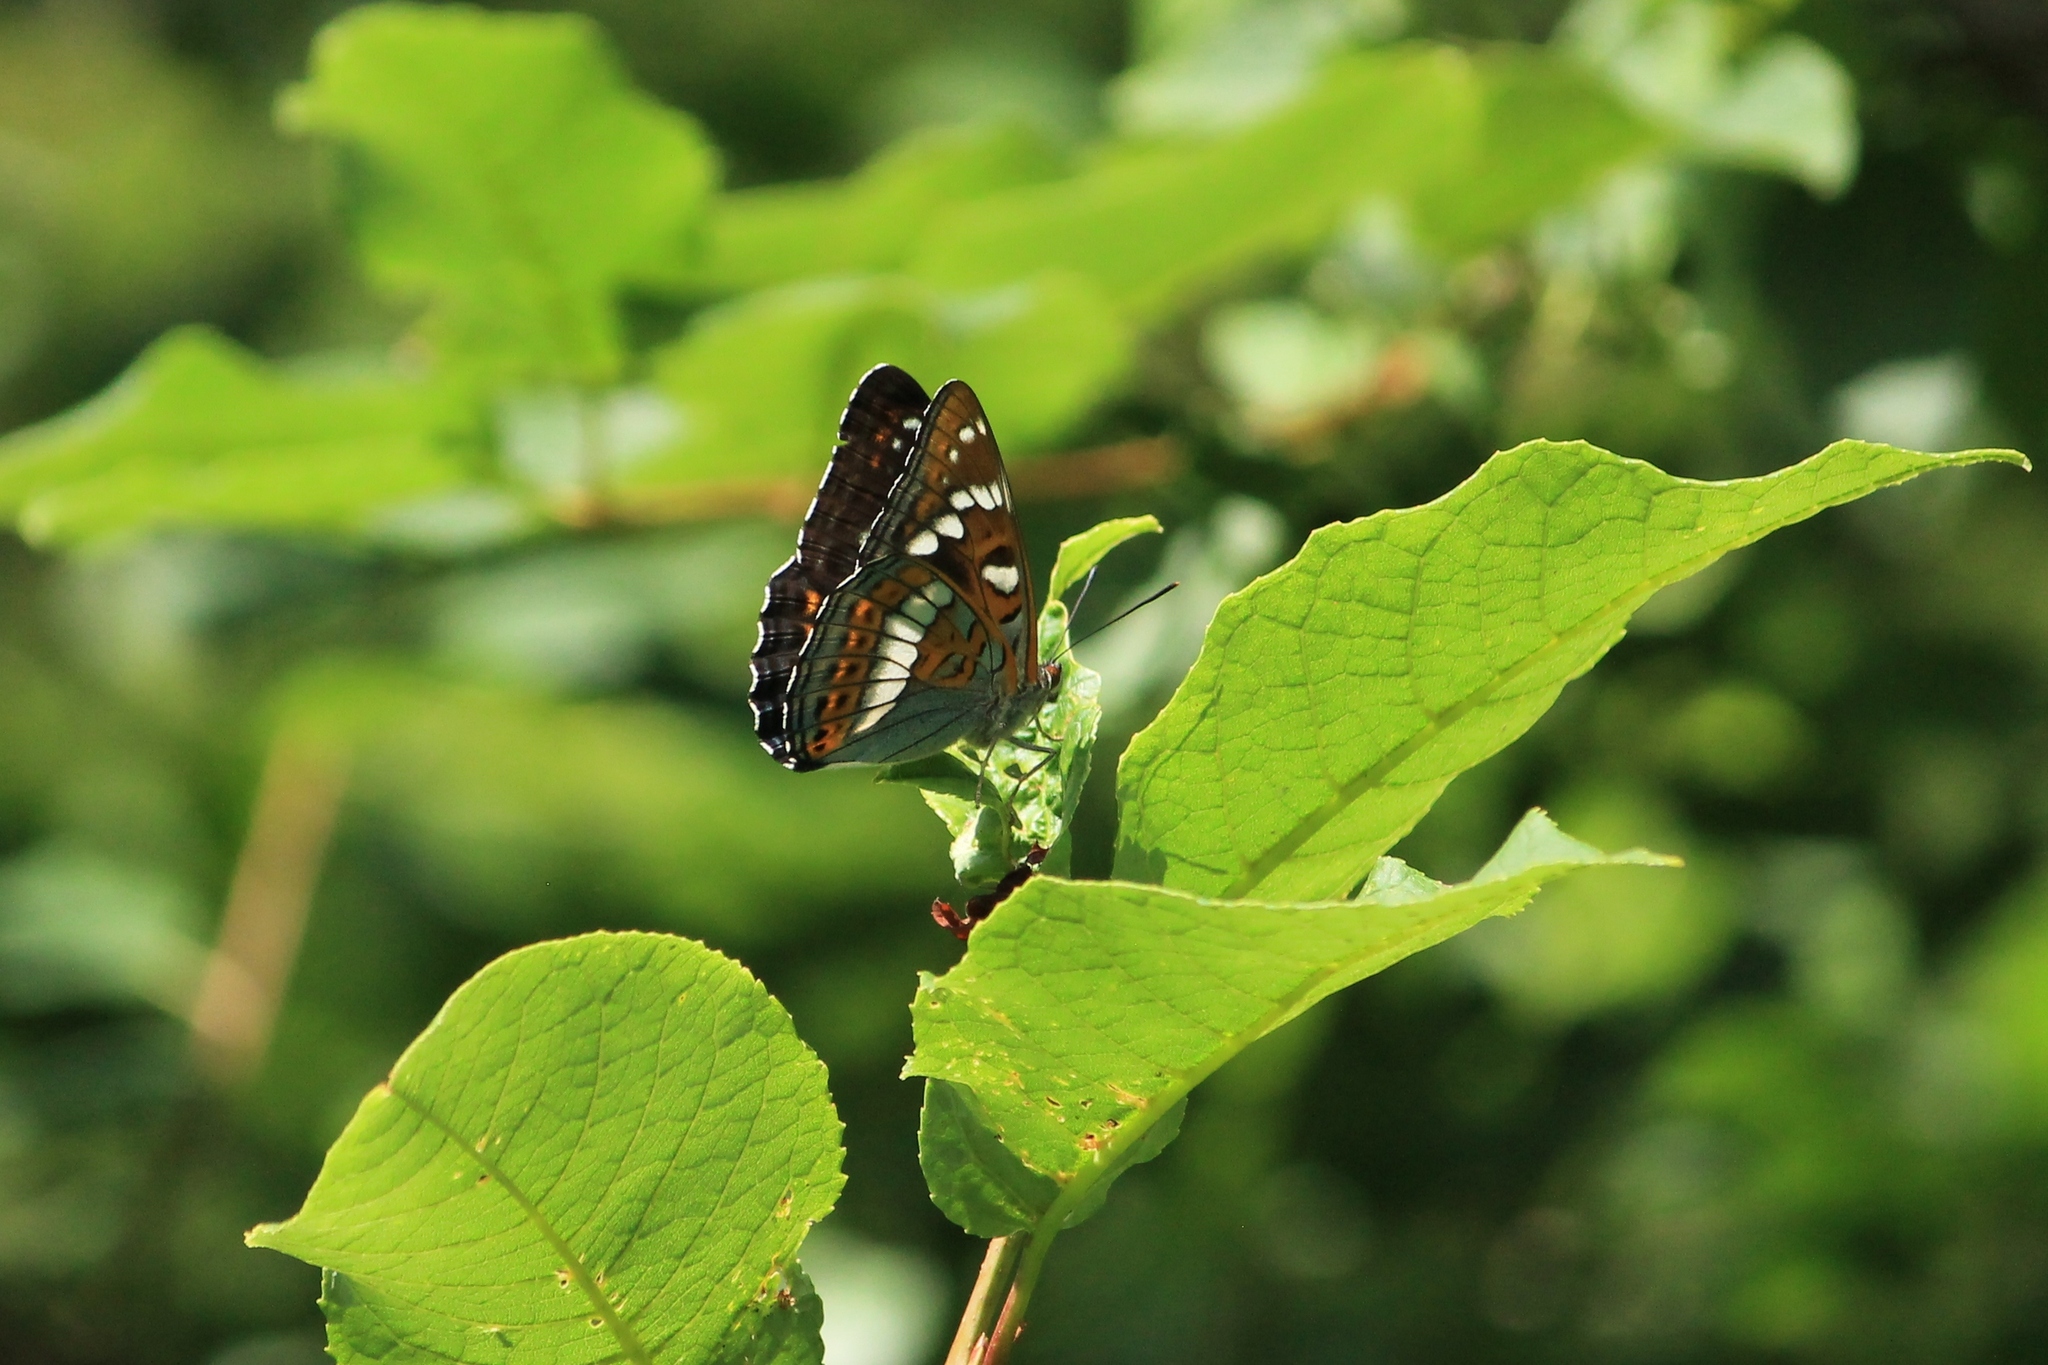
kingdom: Animalia
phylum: Arthropoda
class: Insecta
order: Lepidoptera
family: Nymphalidae
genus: Limenitis
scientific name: Limenitis populi
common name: Poplar admiral
